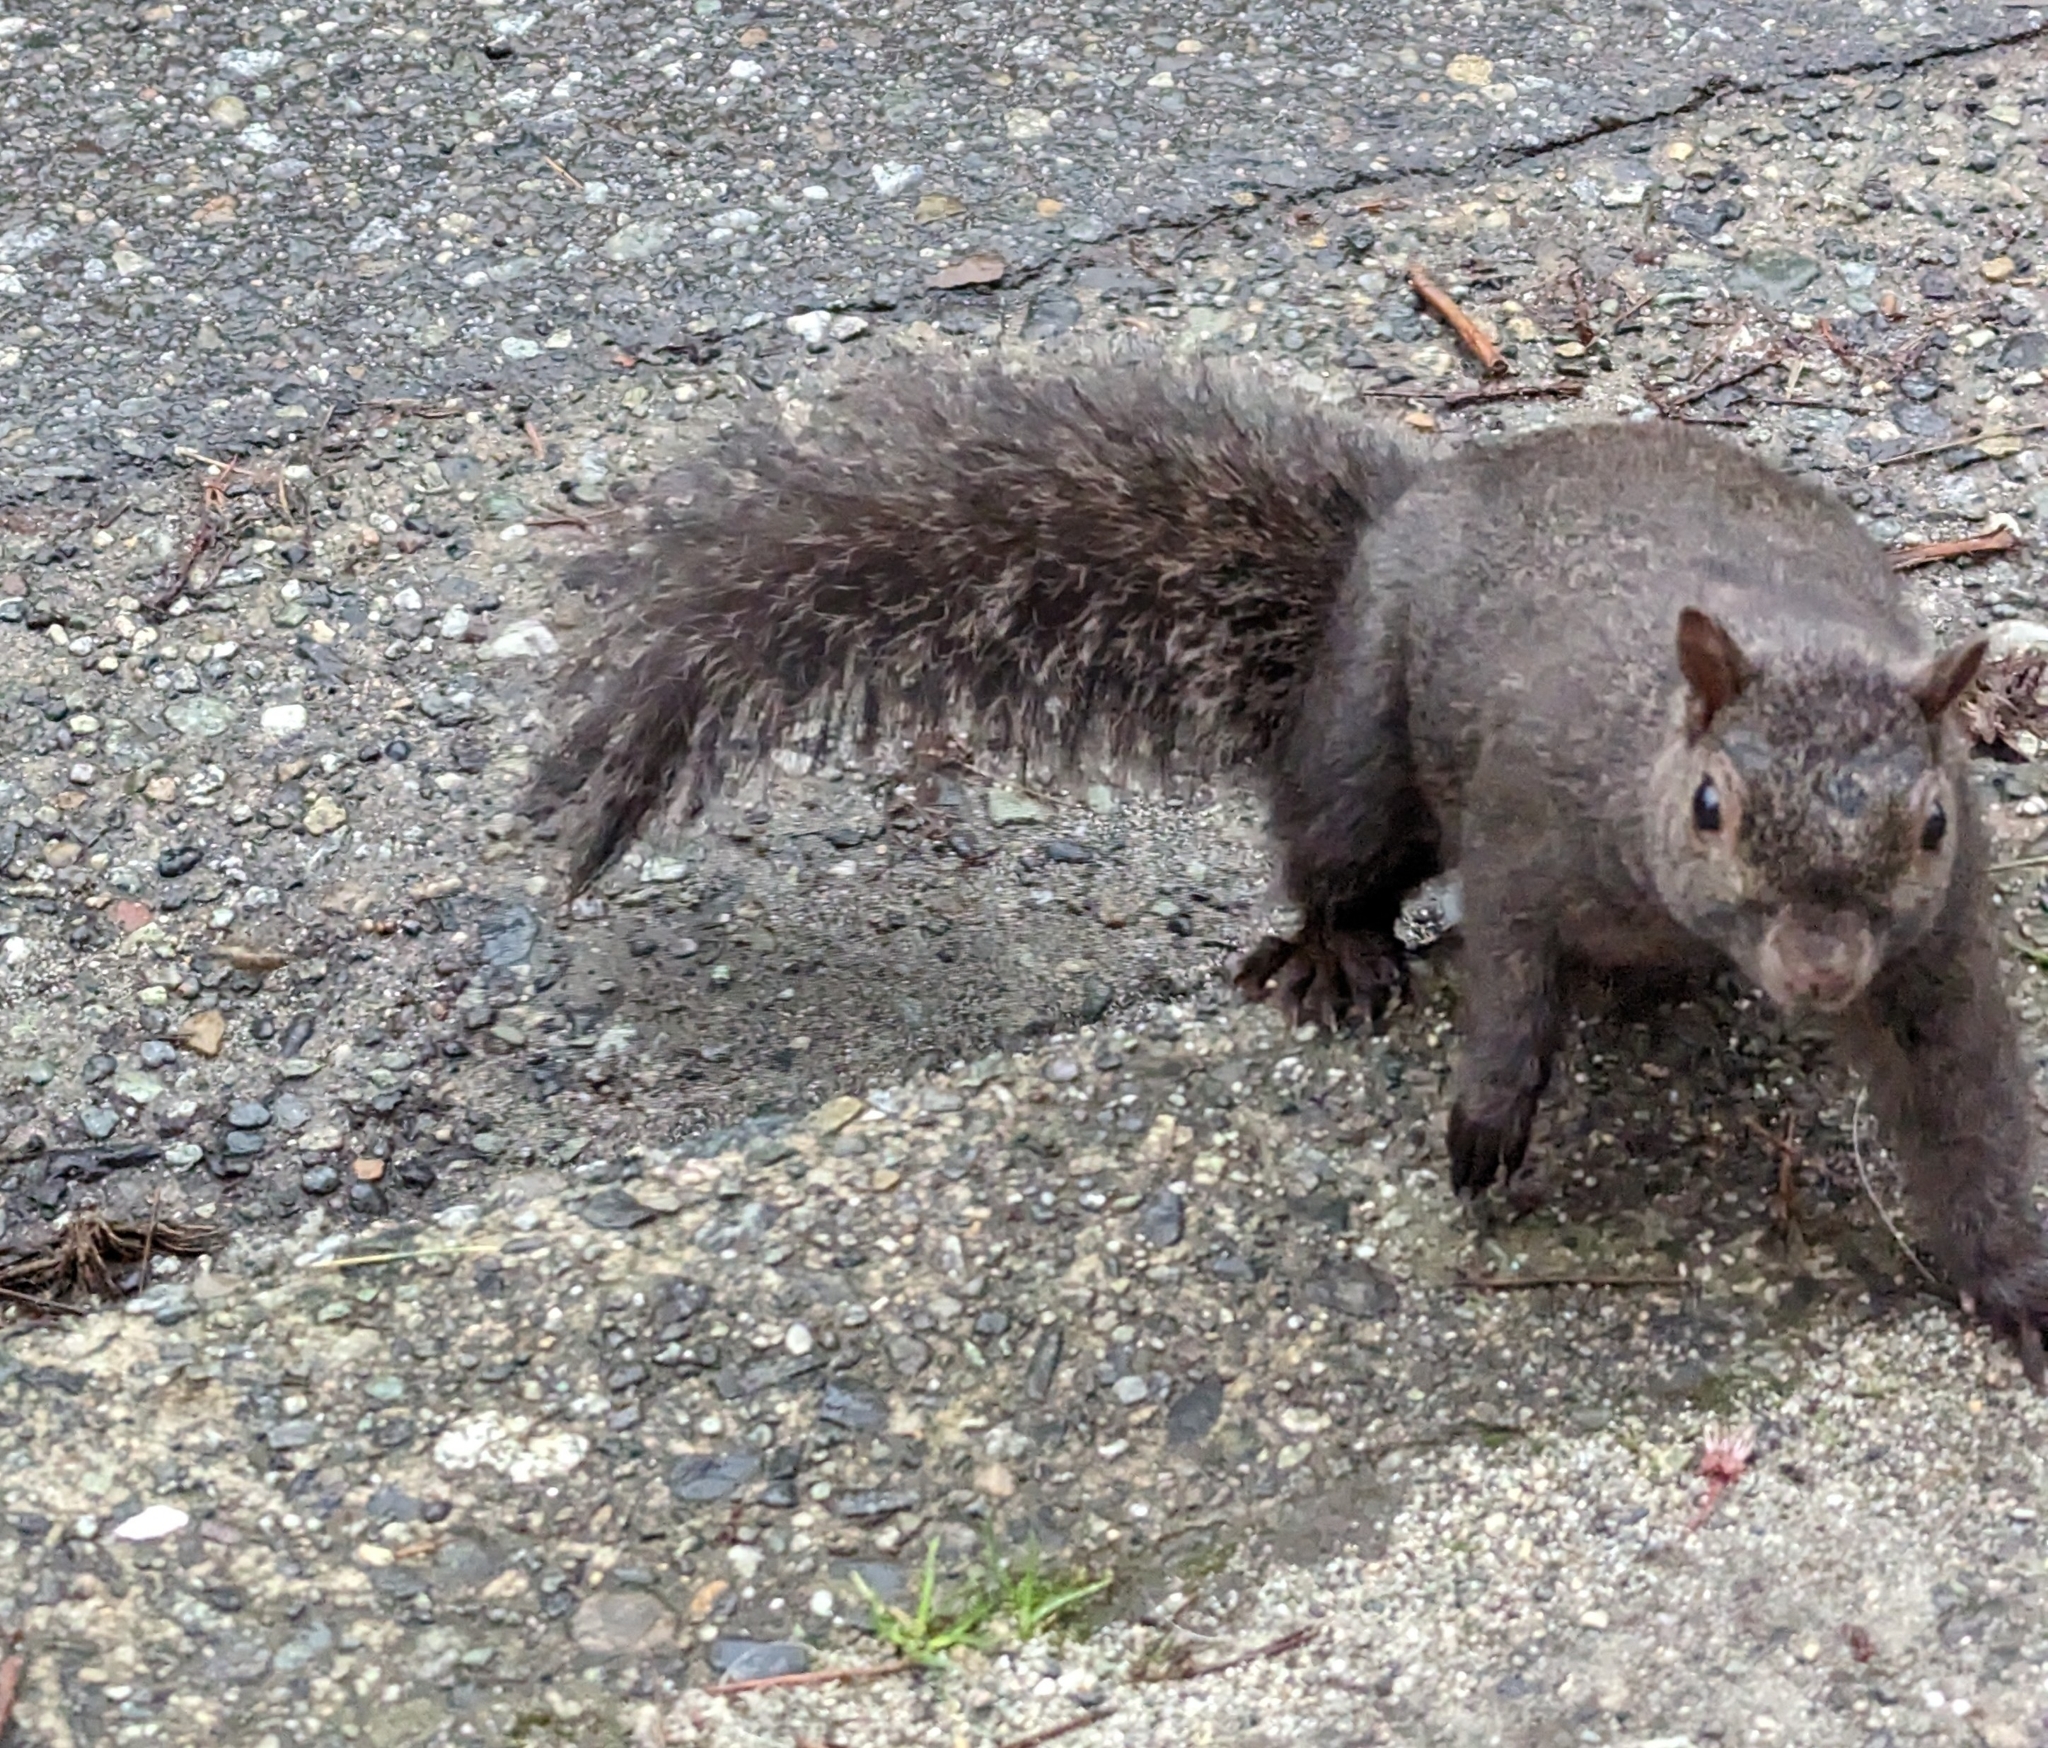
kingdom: Animalia
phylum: Chordata
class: Mammalia
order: Rodentia
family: Sciuridae
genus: Sciurus
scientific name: Sciurus carolinensis
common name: Eastern gray squirrel
